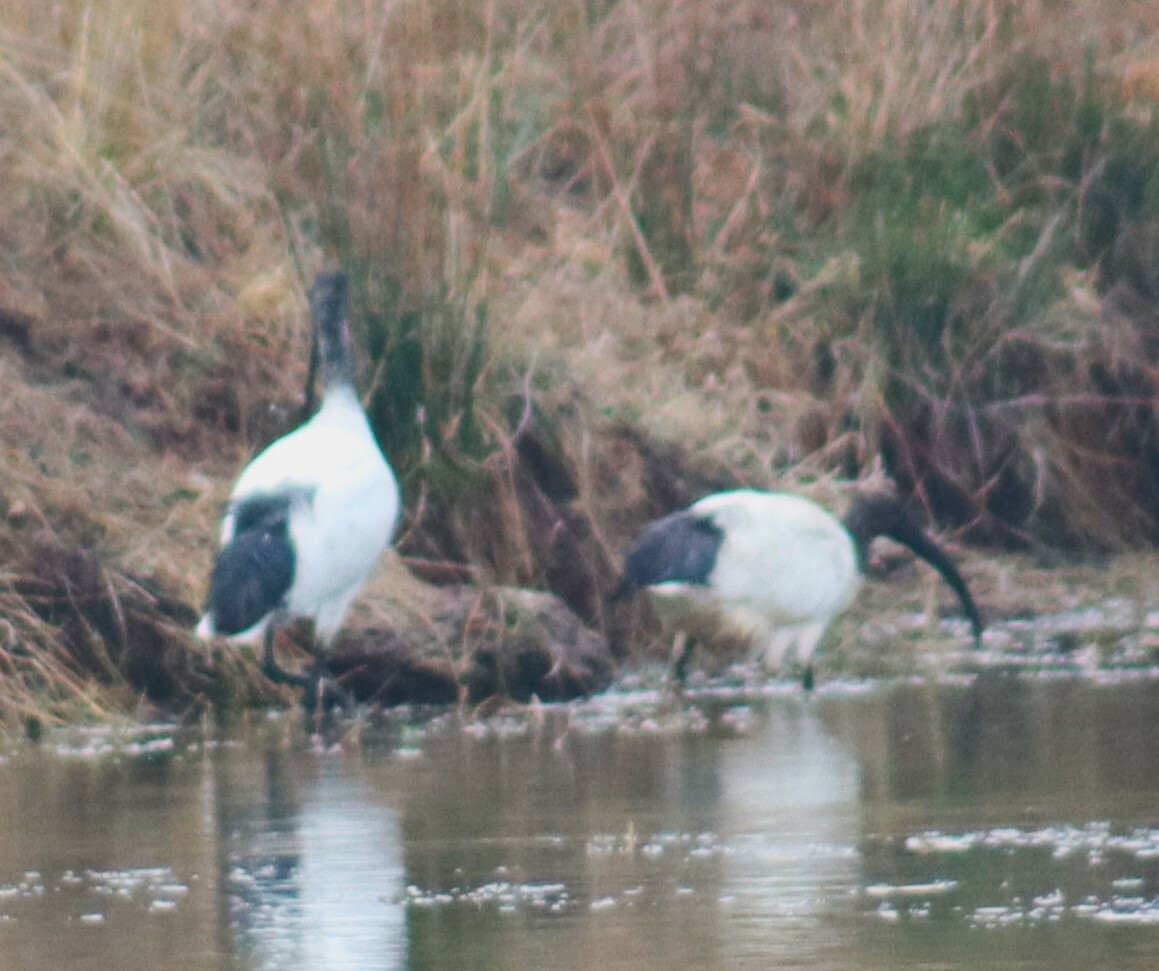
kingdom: Animalia
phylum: Chordata
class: Aves
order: Pelecaniformes
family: Threskiornithidae
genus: Threskiornis
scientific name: Threskiornis aethiopicus
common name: Sacred ibis
